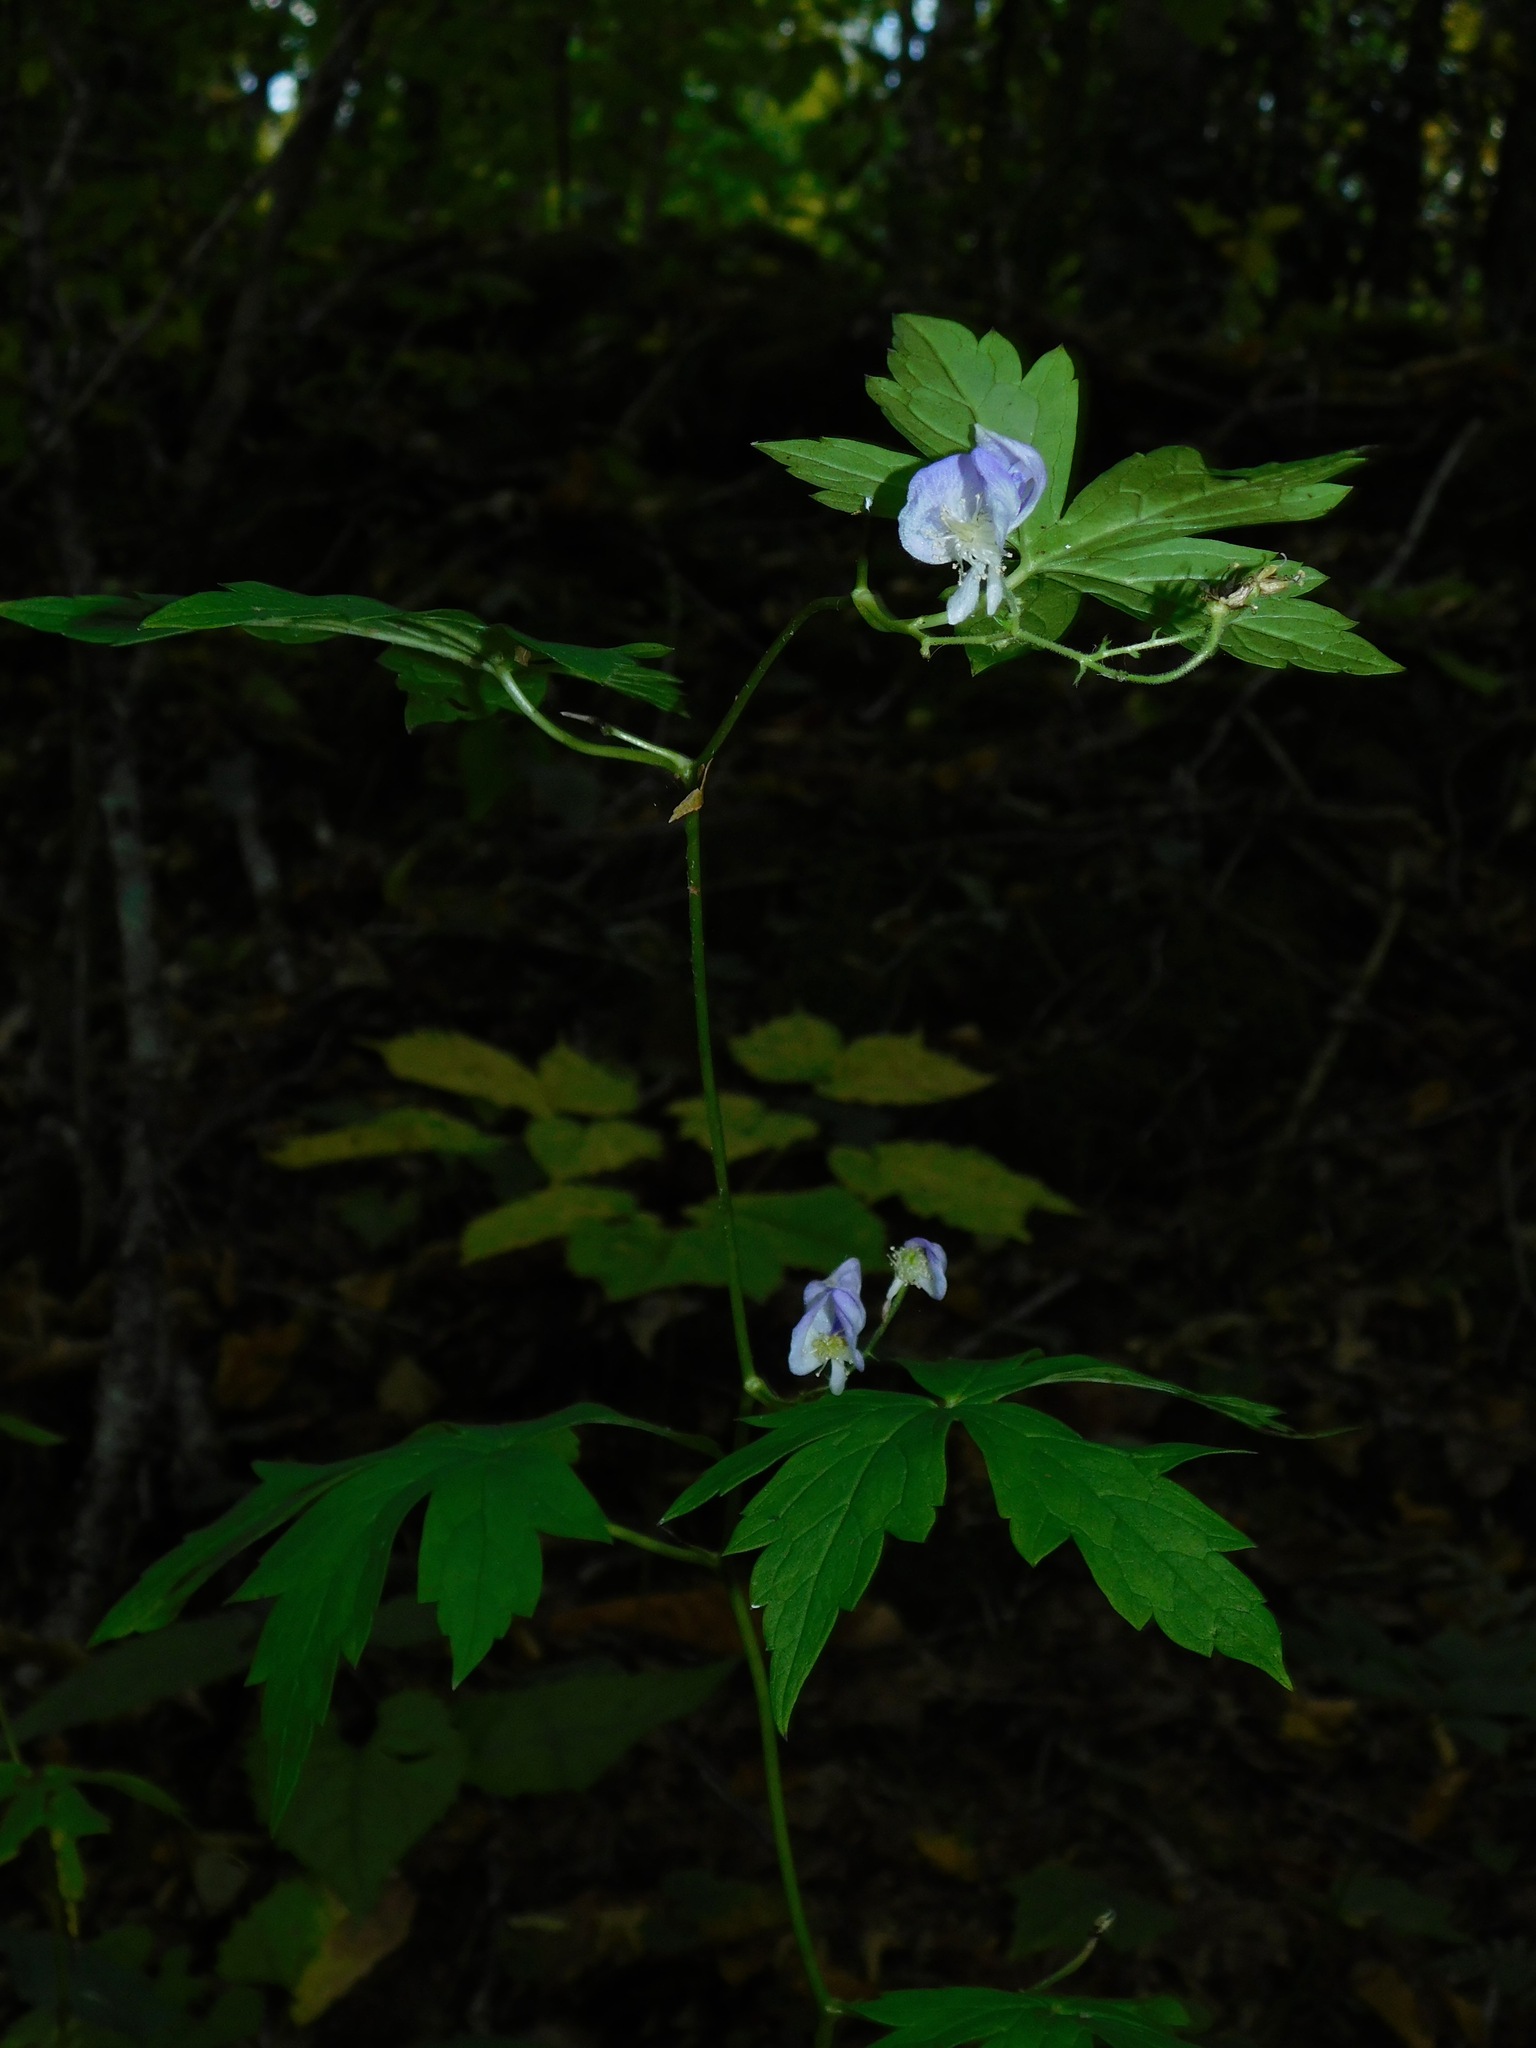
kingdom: Plantae
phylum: Tracheophyta
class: Magnoliopsida
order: Ranunculales
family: Ranunculaceae
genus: Aconitum
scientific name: Aconitum uncinatum
